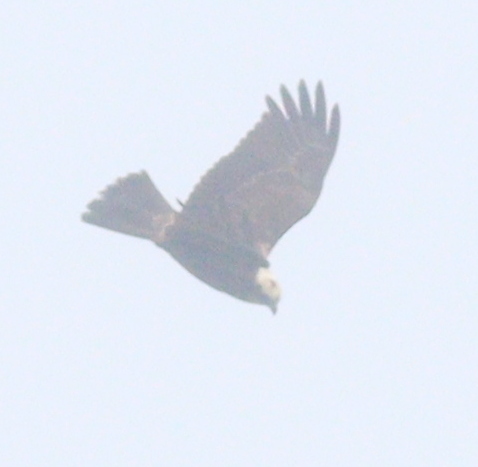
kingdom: Animalia
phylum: Chordata
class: Aves
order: Accipitriformes
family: Accipitridae
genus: Circus
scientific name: Circus aeruginosus
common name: Western marsh harrier
